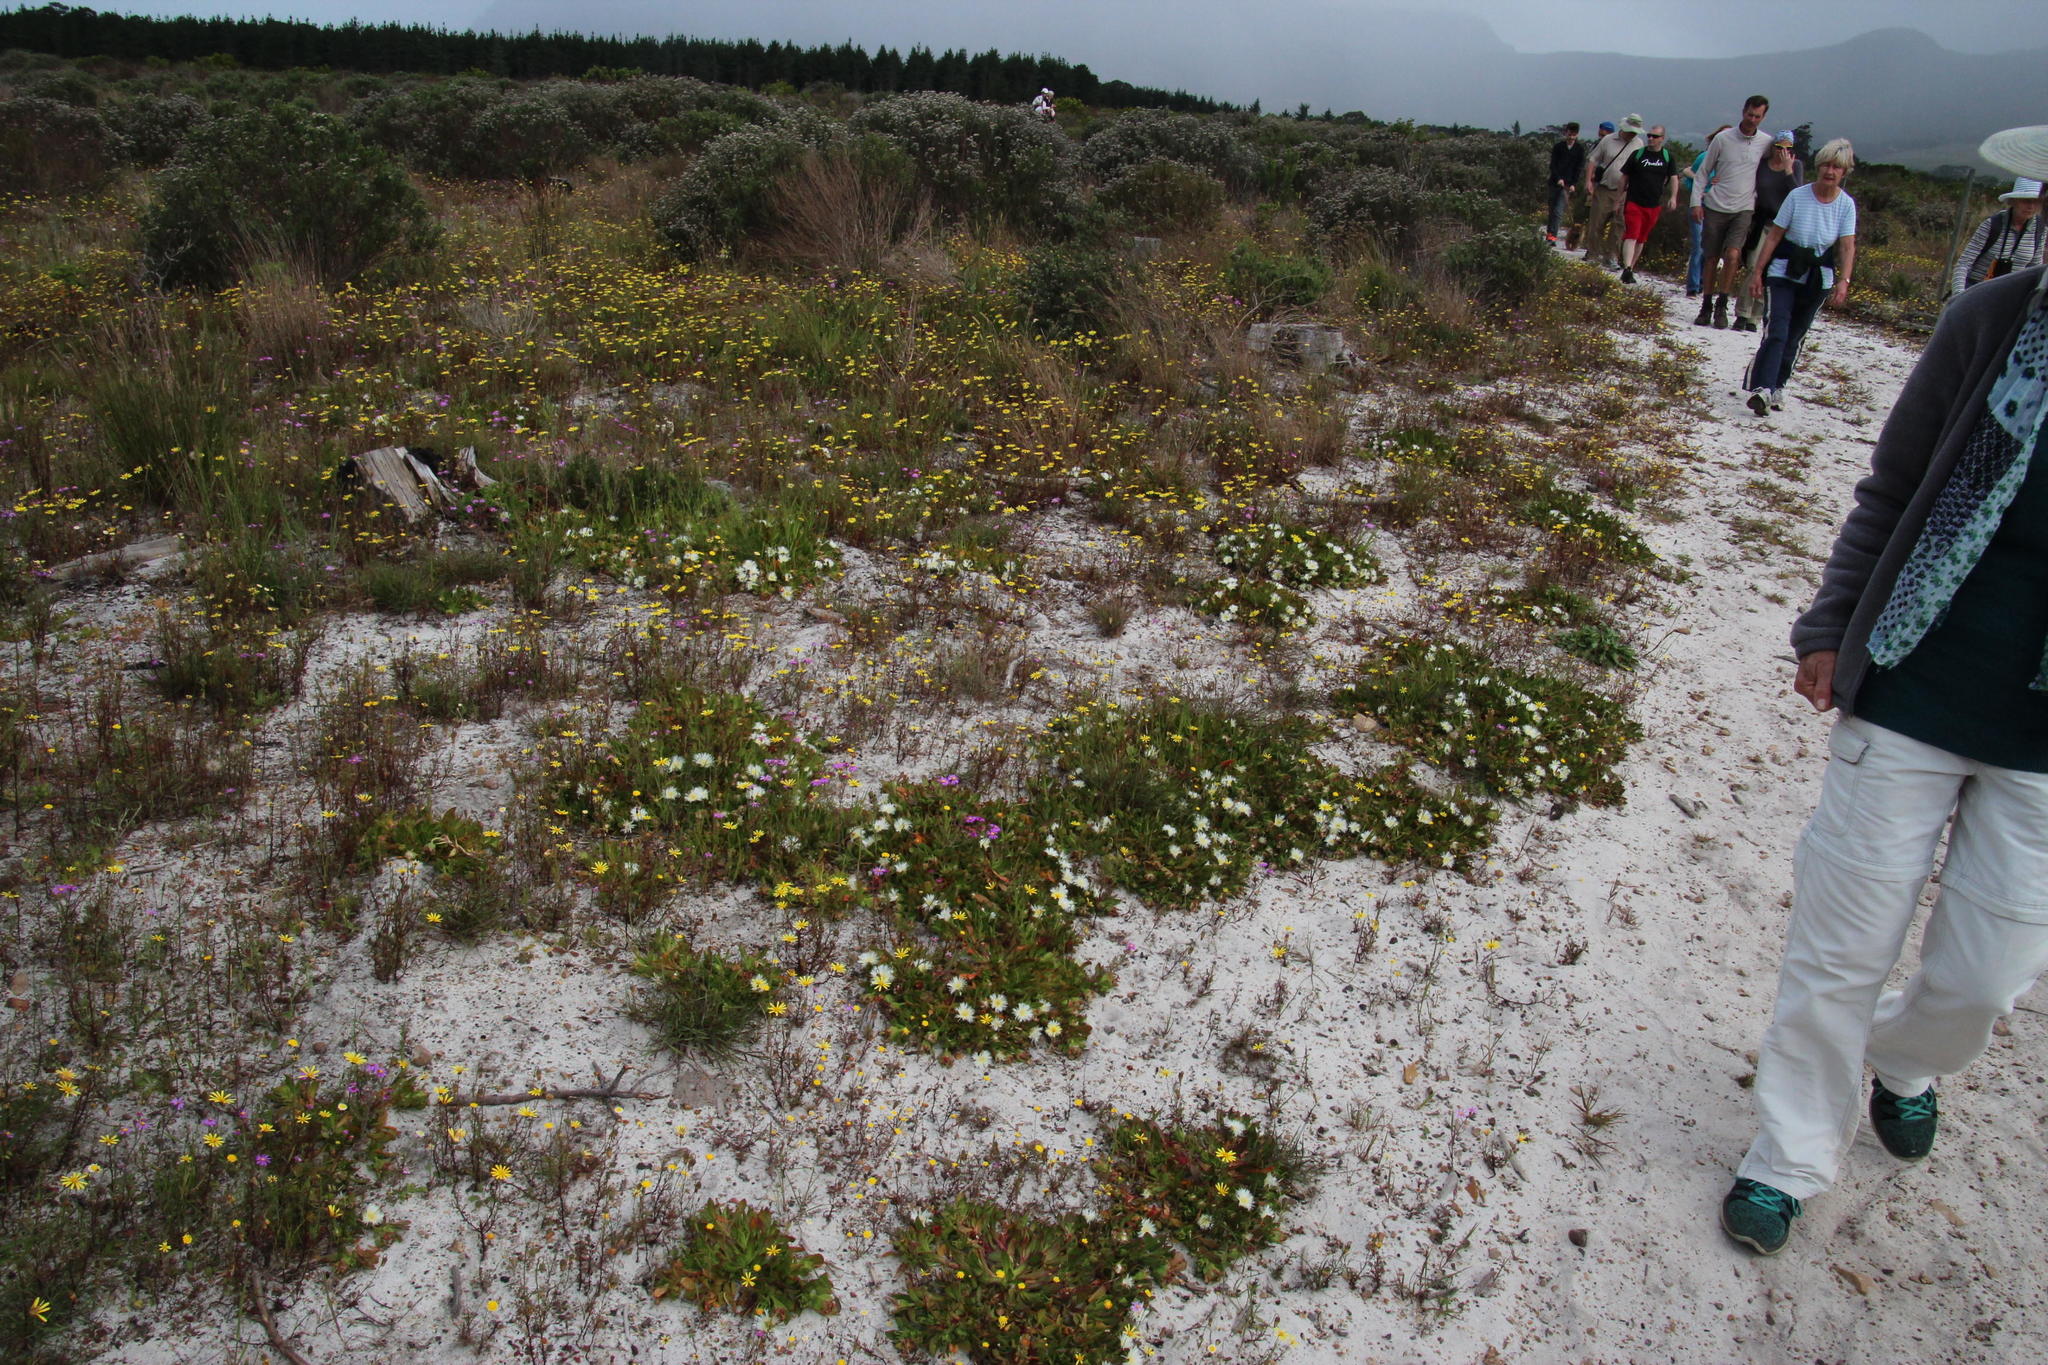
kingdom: Plantae
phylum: Tracheophyta
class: Magnoliopsida
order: Caryophyllales
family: Aizoaceae
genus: Skiatophytum
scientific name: Skiatophytum tripolium
